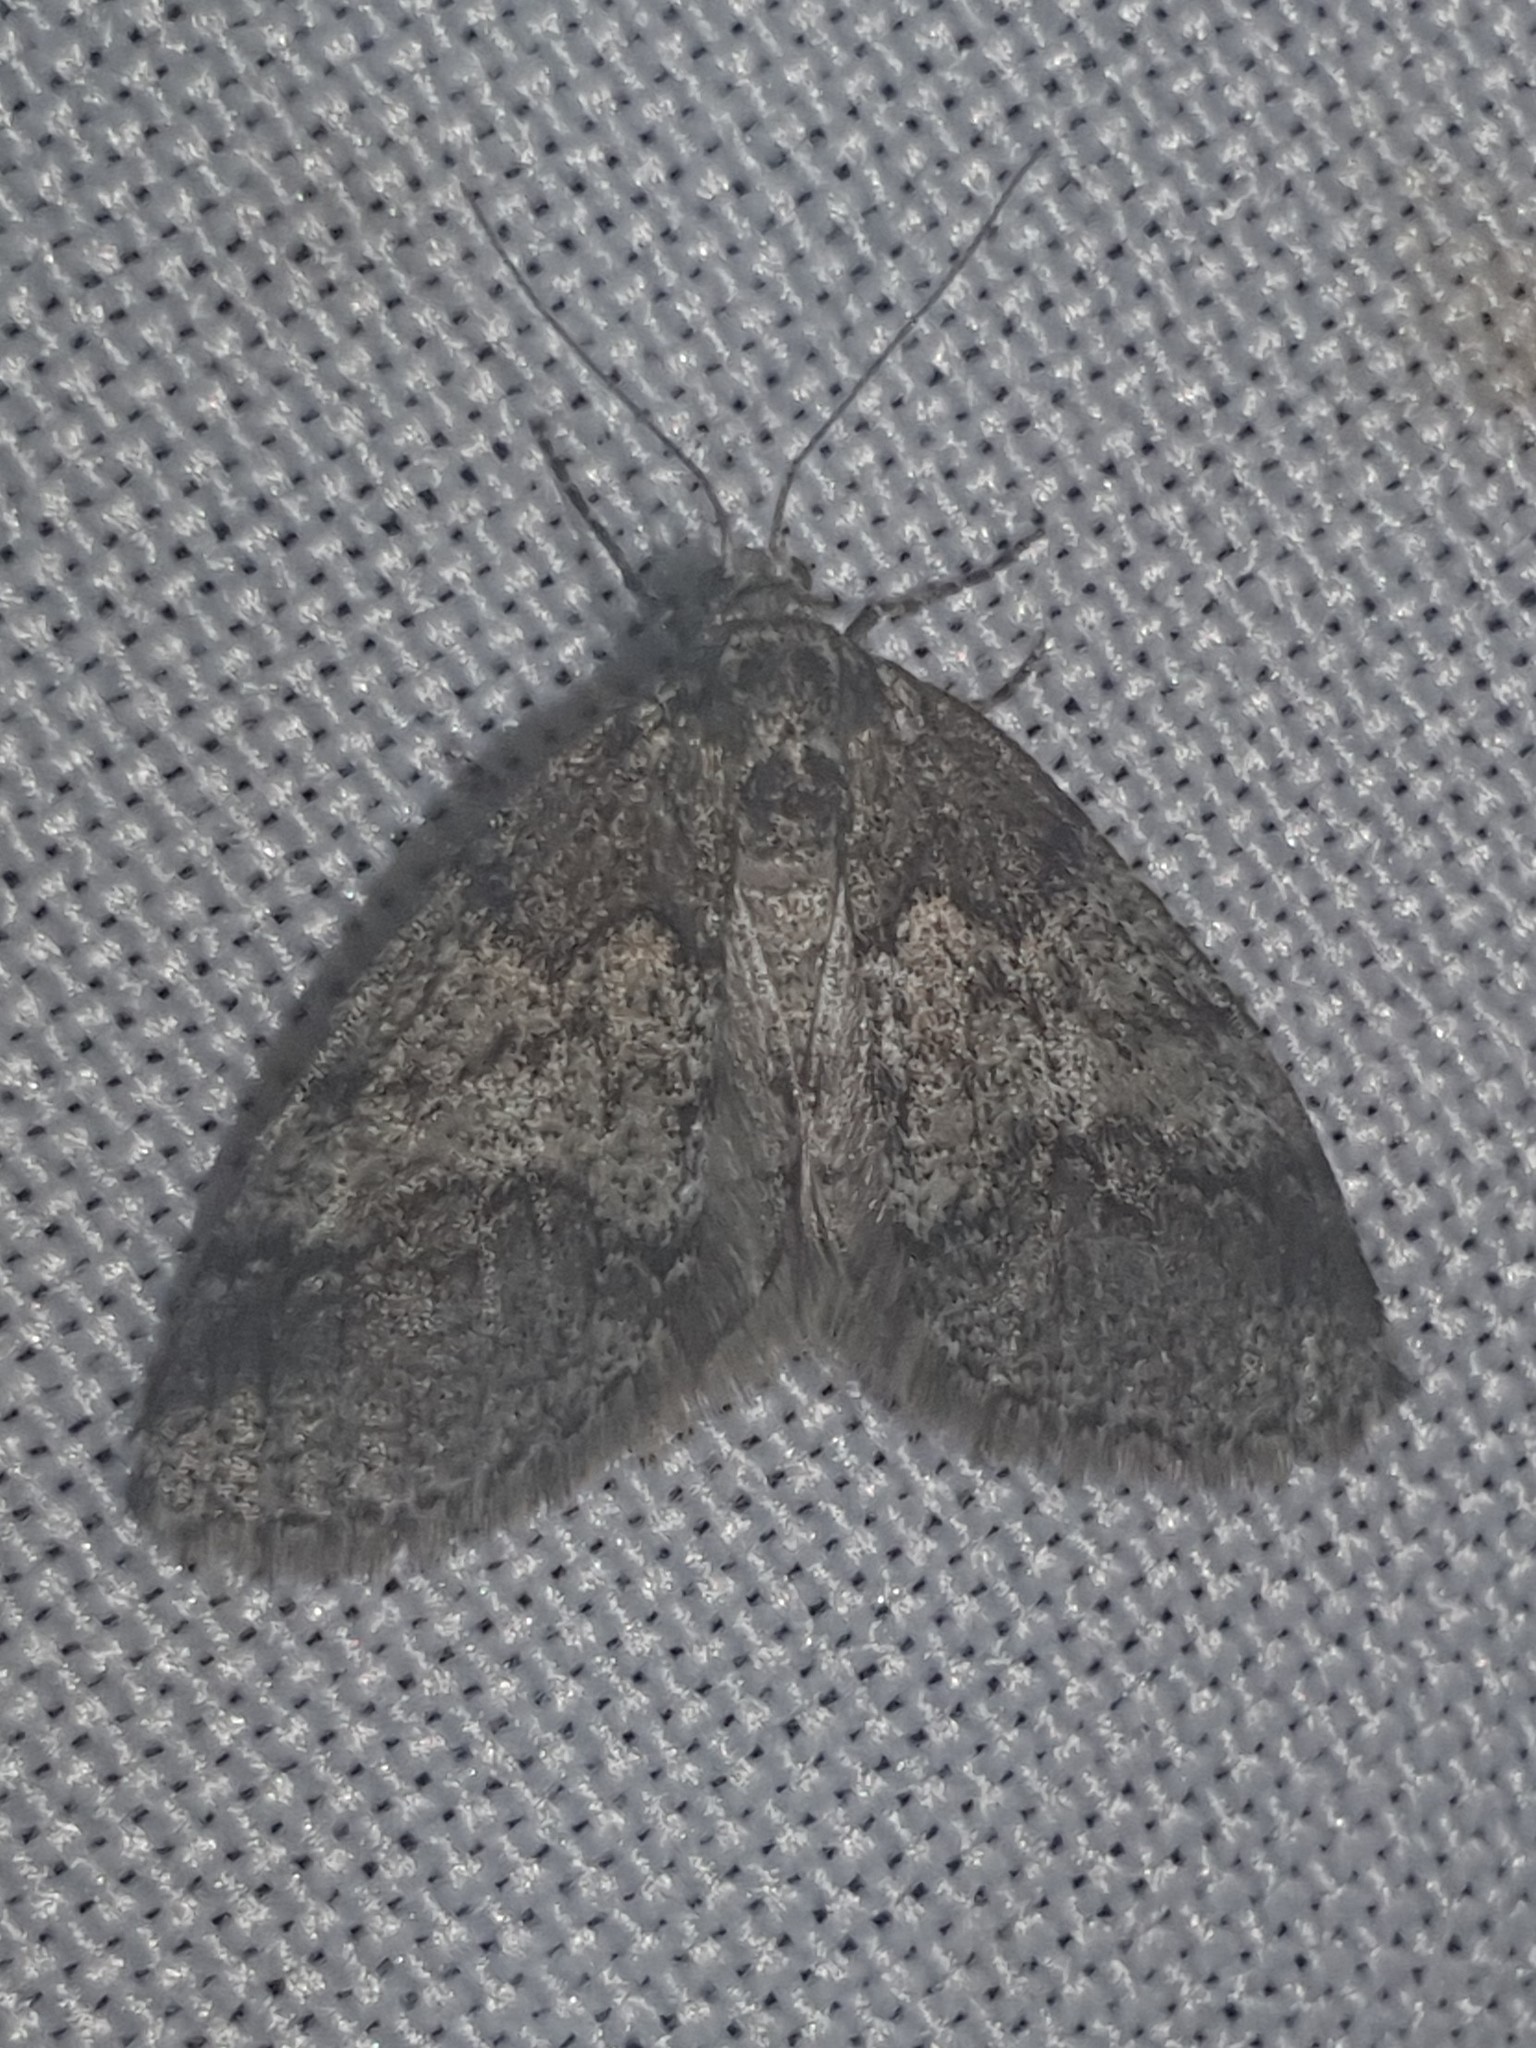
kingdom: Animalia
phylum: Arthropoda
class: Insecta
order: Lepidoptera
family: Geometridae
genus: Tephronia
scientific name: Tephronia lhommaria
